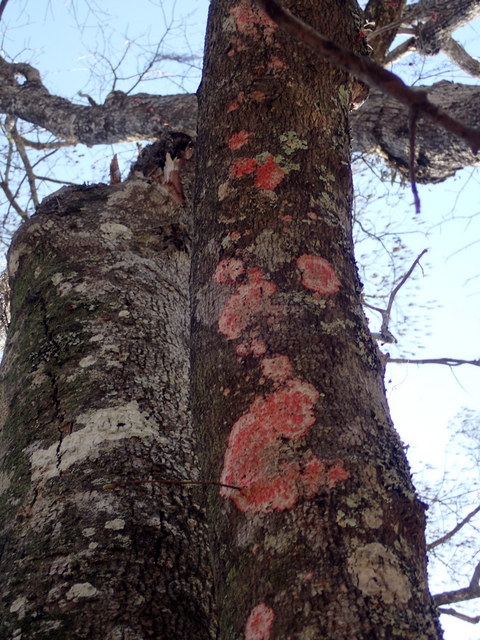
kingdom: Fungi
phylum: Ascomycota
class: Arthoniomycetes
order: Arthoniales
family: Arthoniaceae
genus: Herpothallon
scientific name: Herpothallon rubrocinctum
